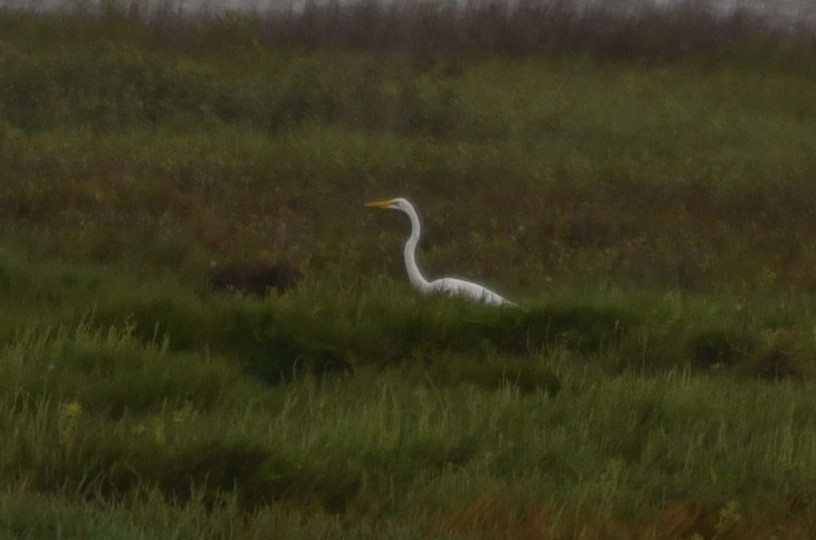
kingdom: Animalia
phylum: Chordata
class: Aves
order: Pelecaniformes
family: Ardeidae
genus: Ardea
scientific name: Ardea alba
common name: Great egret
